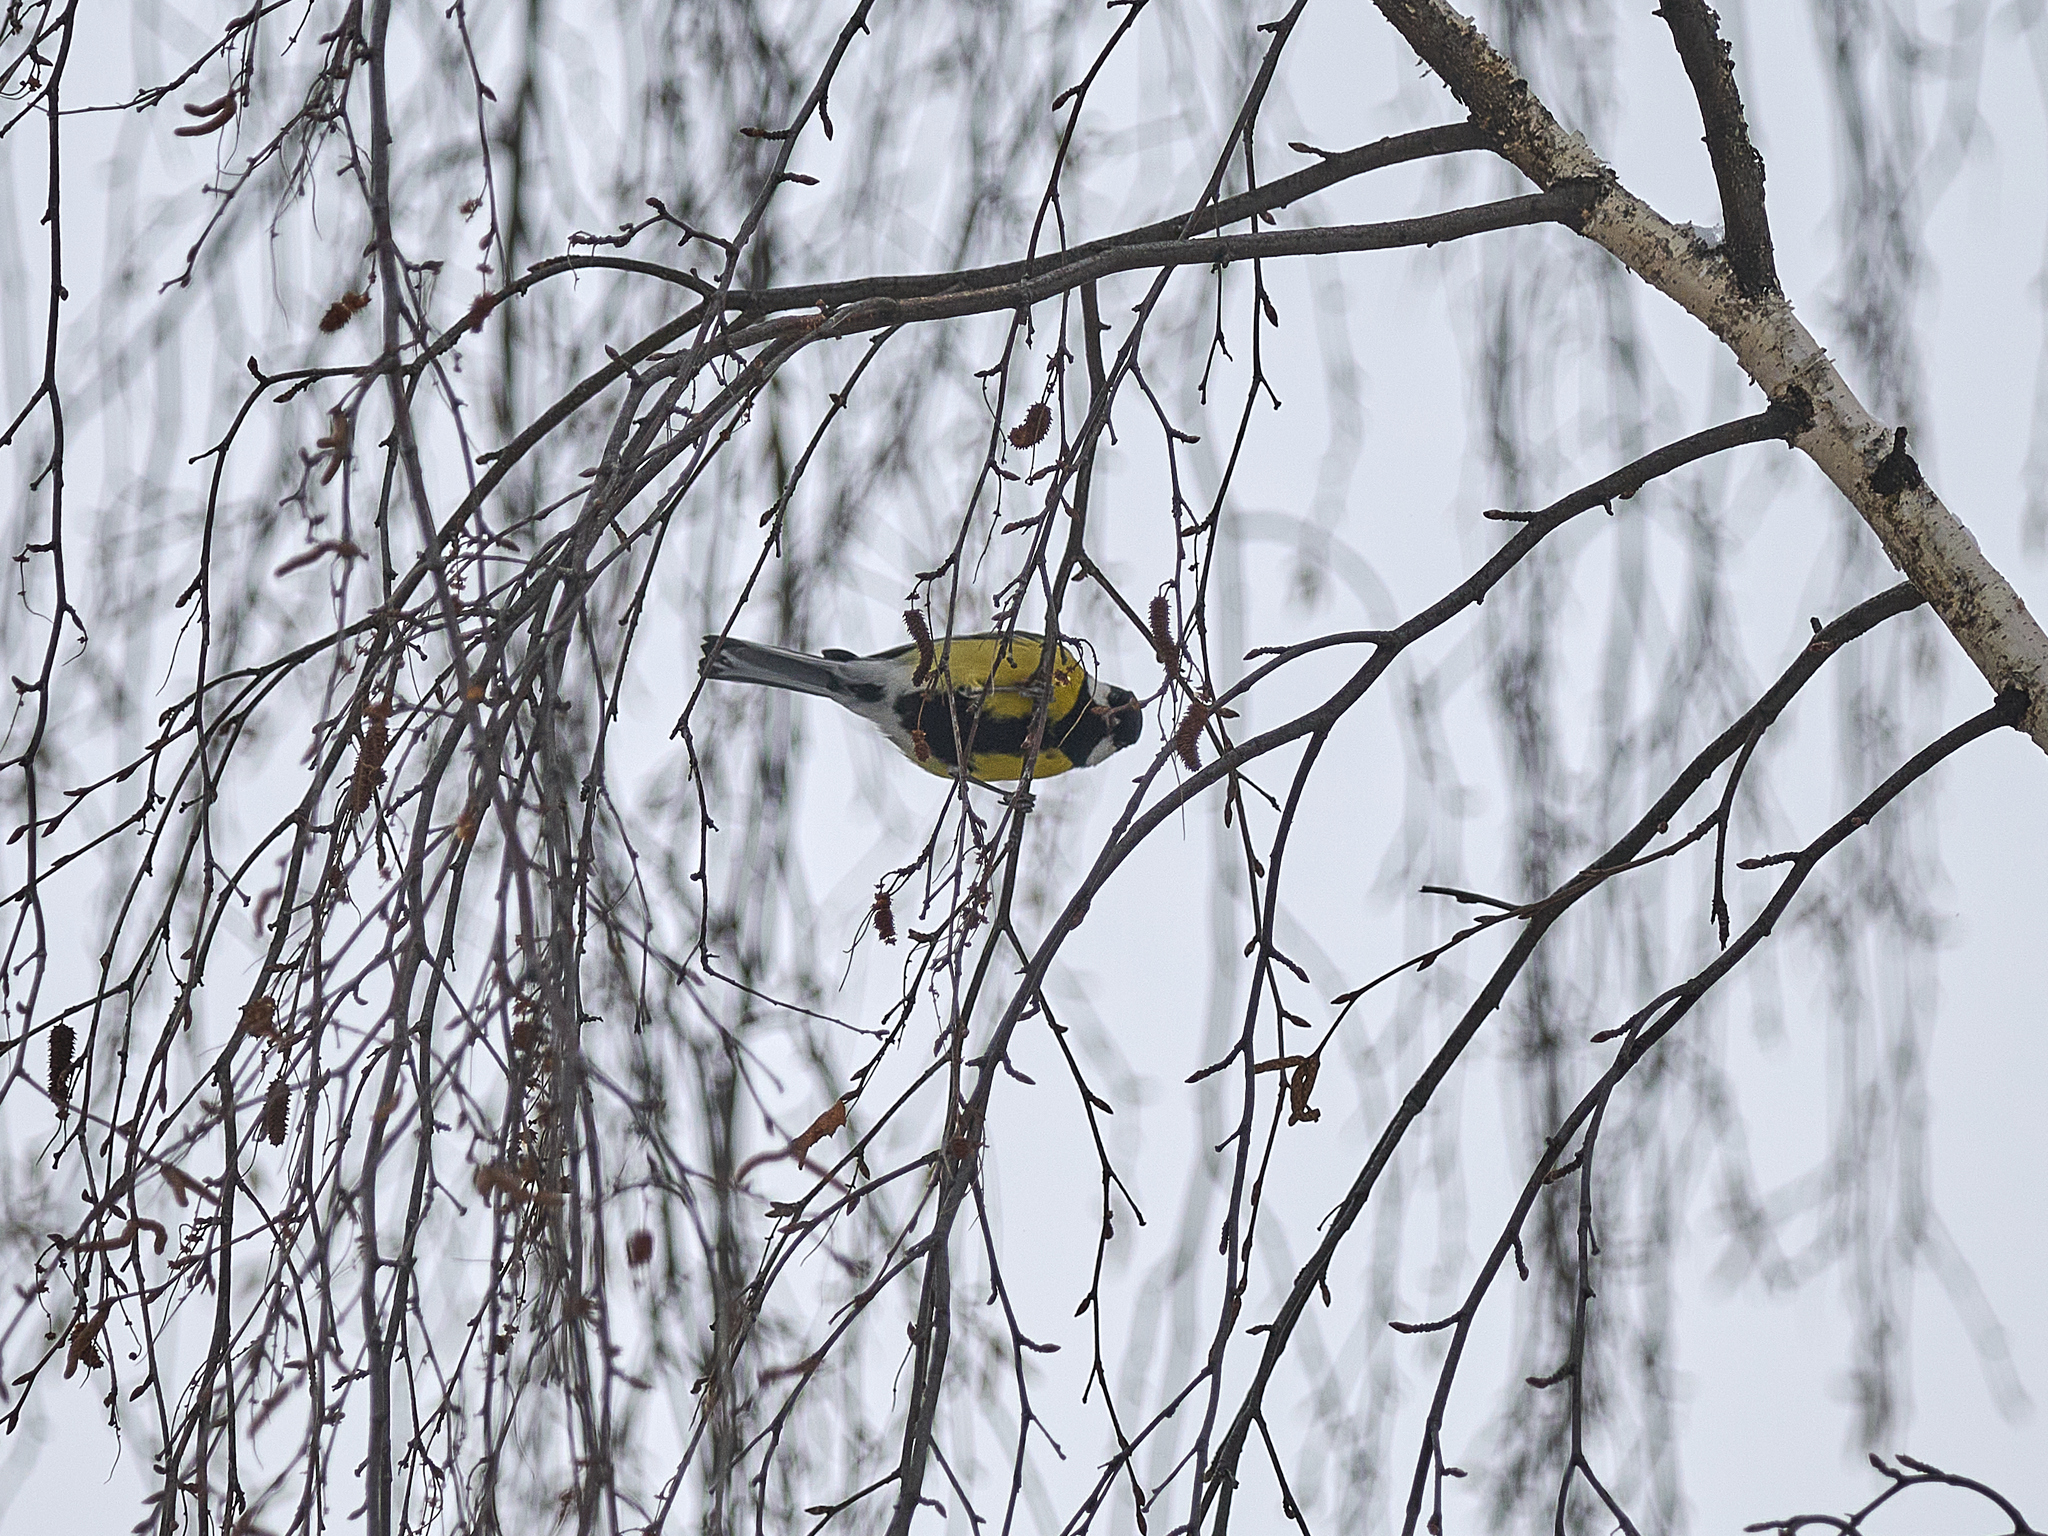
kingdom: Animalia
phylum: Chordata
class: Aves
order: Passeriformes
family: Paridae
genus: Parus
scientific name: Parus major
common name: Great tit
